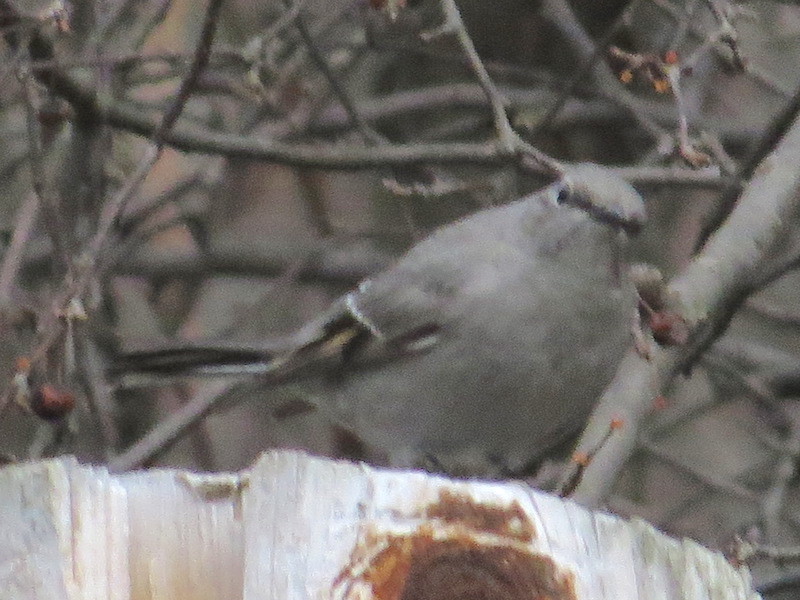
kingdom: Animalia
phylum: Chordata
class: Aves
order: Passeriformes
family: Turdidae
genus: Myadestes
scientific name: Myadestes townsendi
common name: Townsend's solitaire
